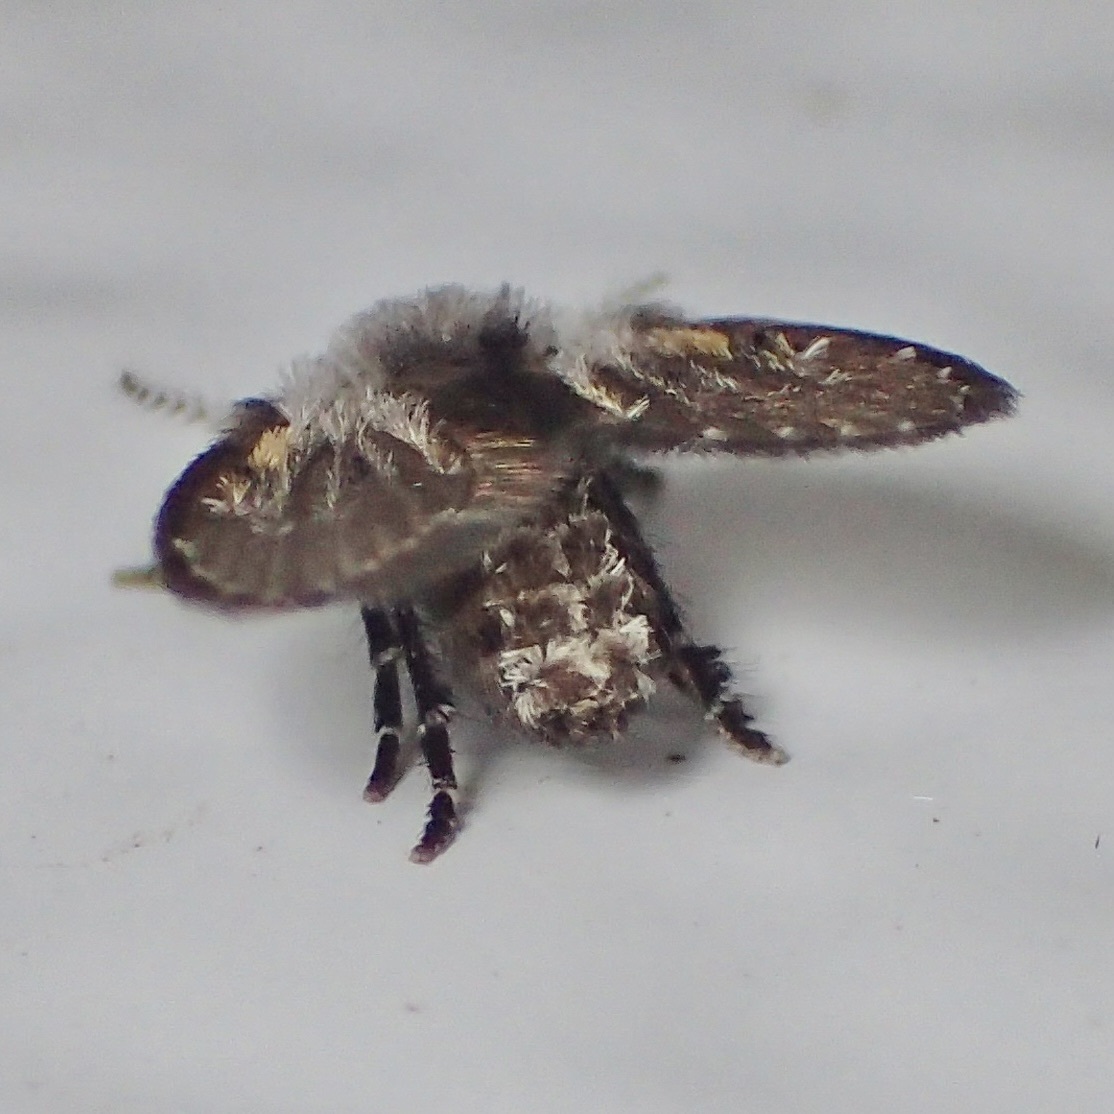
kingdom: Animalia
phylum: Arthropoda
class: Insecta
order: Diptera
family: Psychodidae
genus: Clogmia
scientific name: Clogmia albipunctatus
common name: White-spotted moth fly
